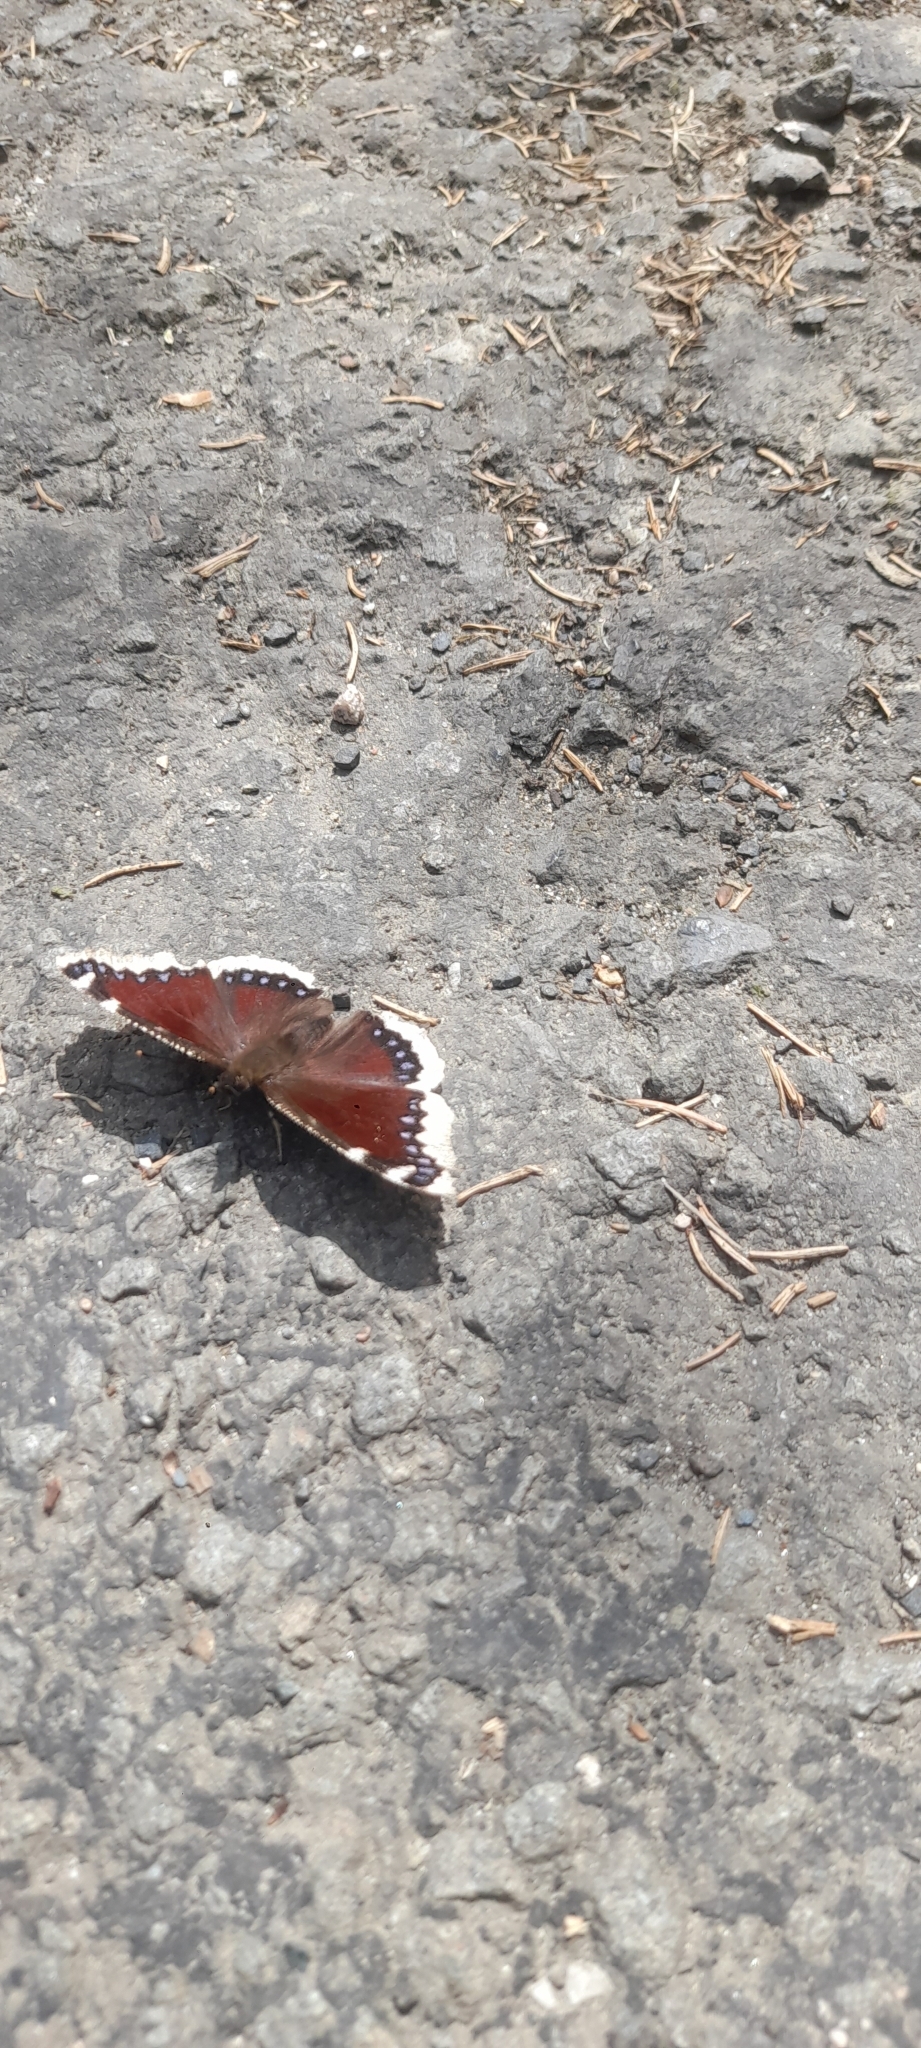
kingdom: Animalia
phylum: Arthropoda
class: Insecta
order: Lepidoptera
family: Nymphalidae
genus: Nymphalis
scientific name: Nymphalis antiopa
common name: Camberwell beauty
